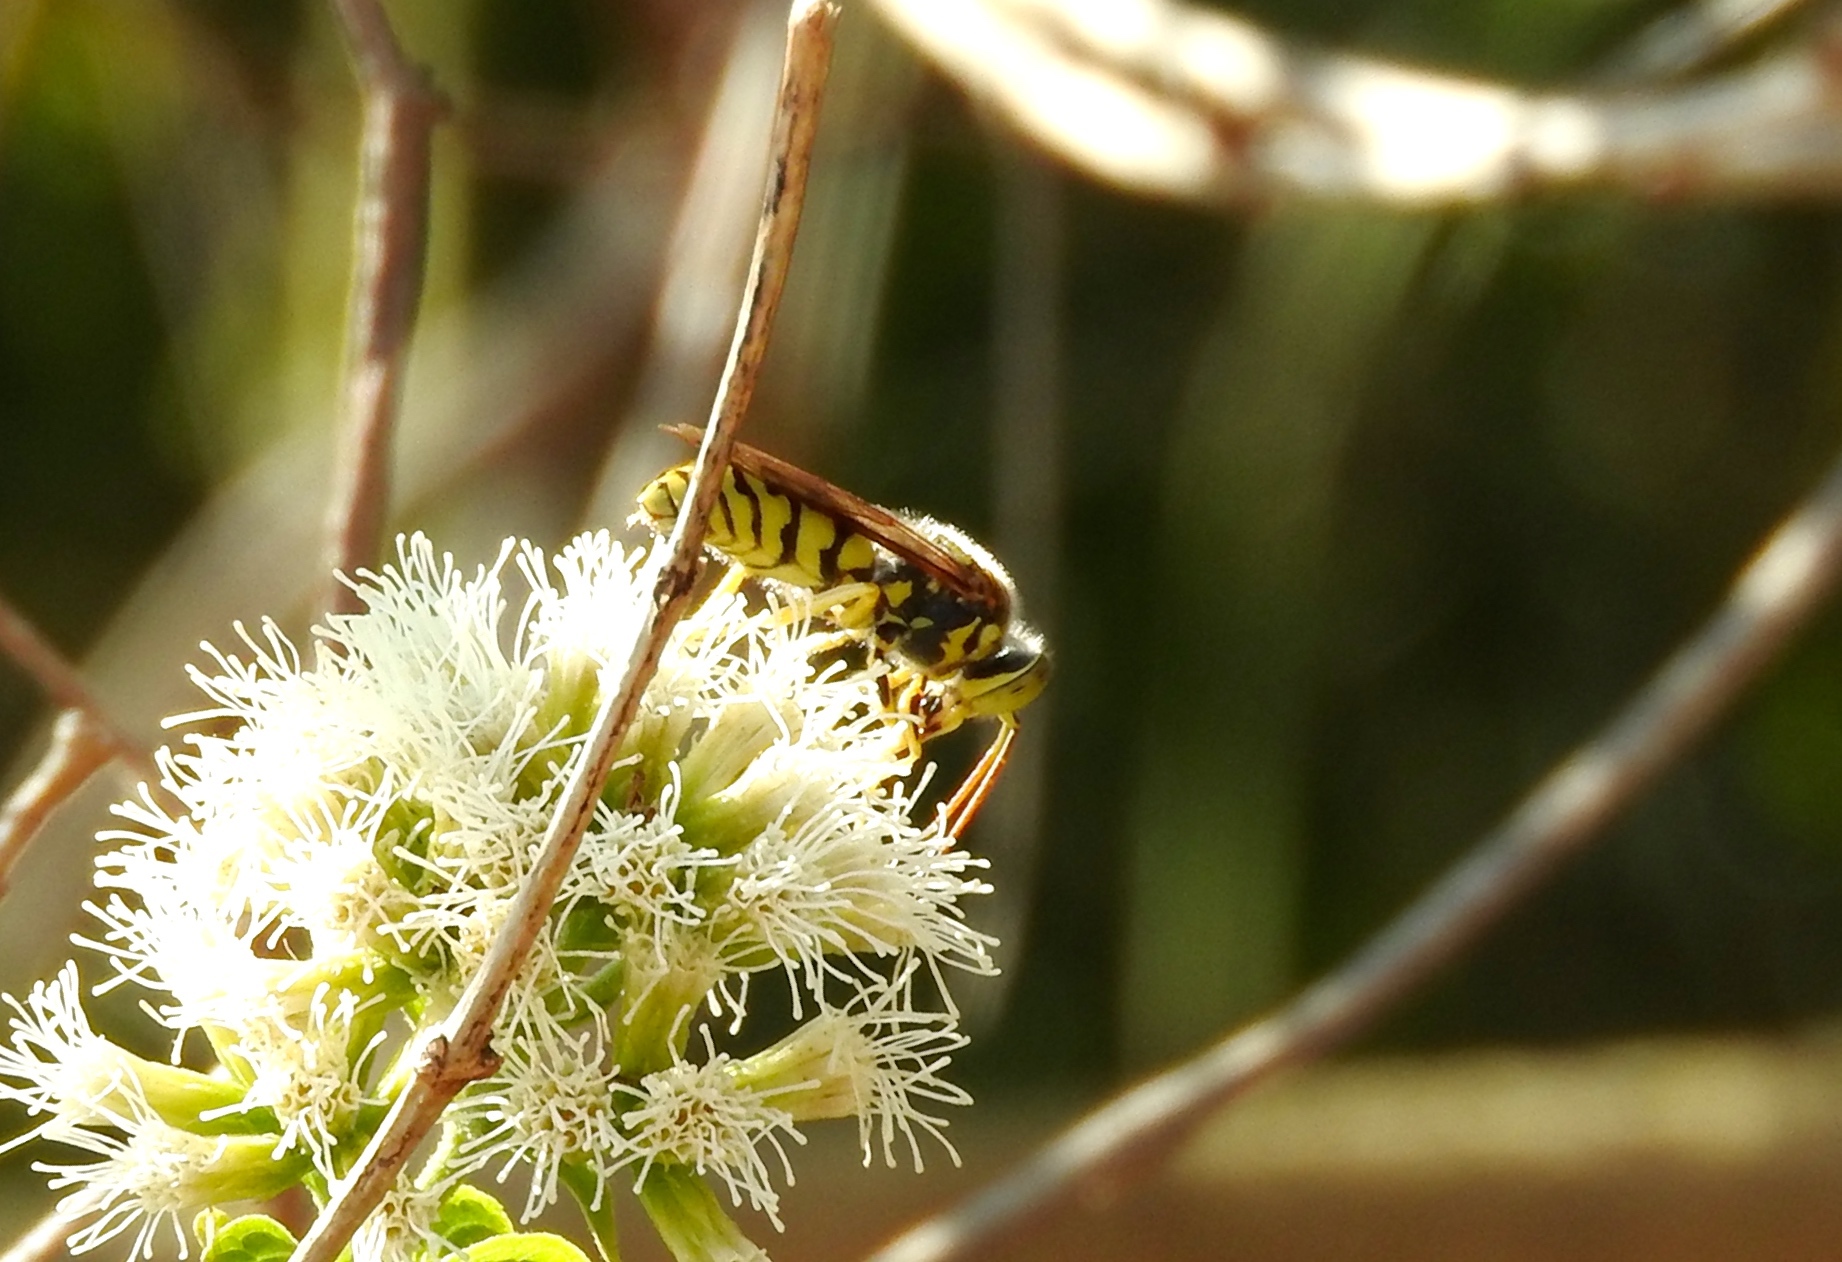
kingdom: Animalia
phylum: Arthropoda
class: Insecta
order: Hymenoptera
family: Crabronidae
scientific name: Crabronidae
